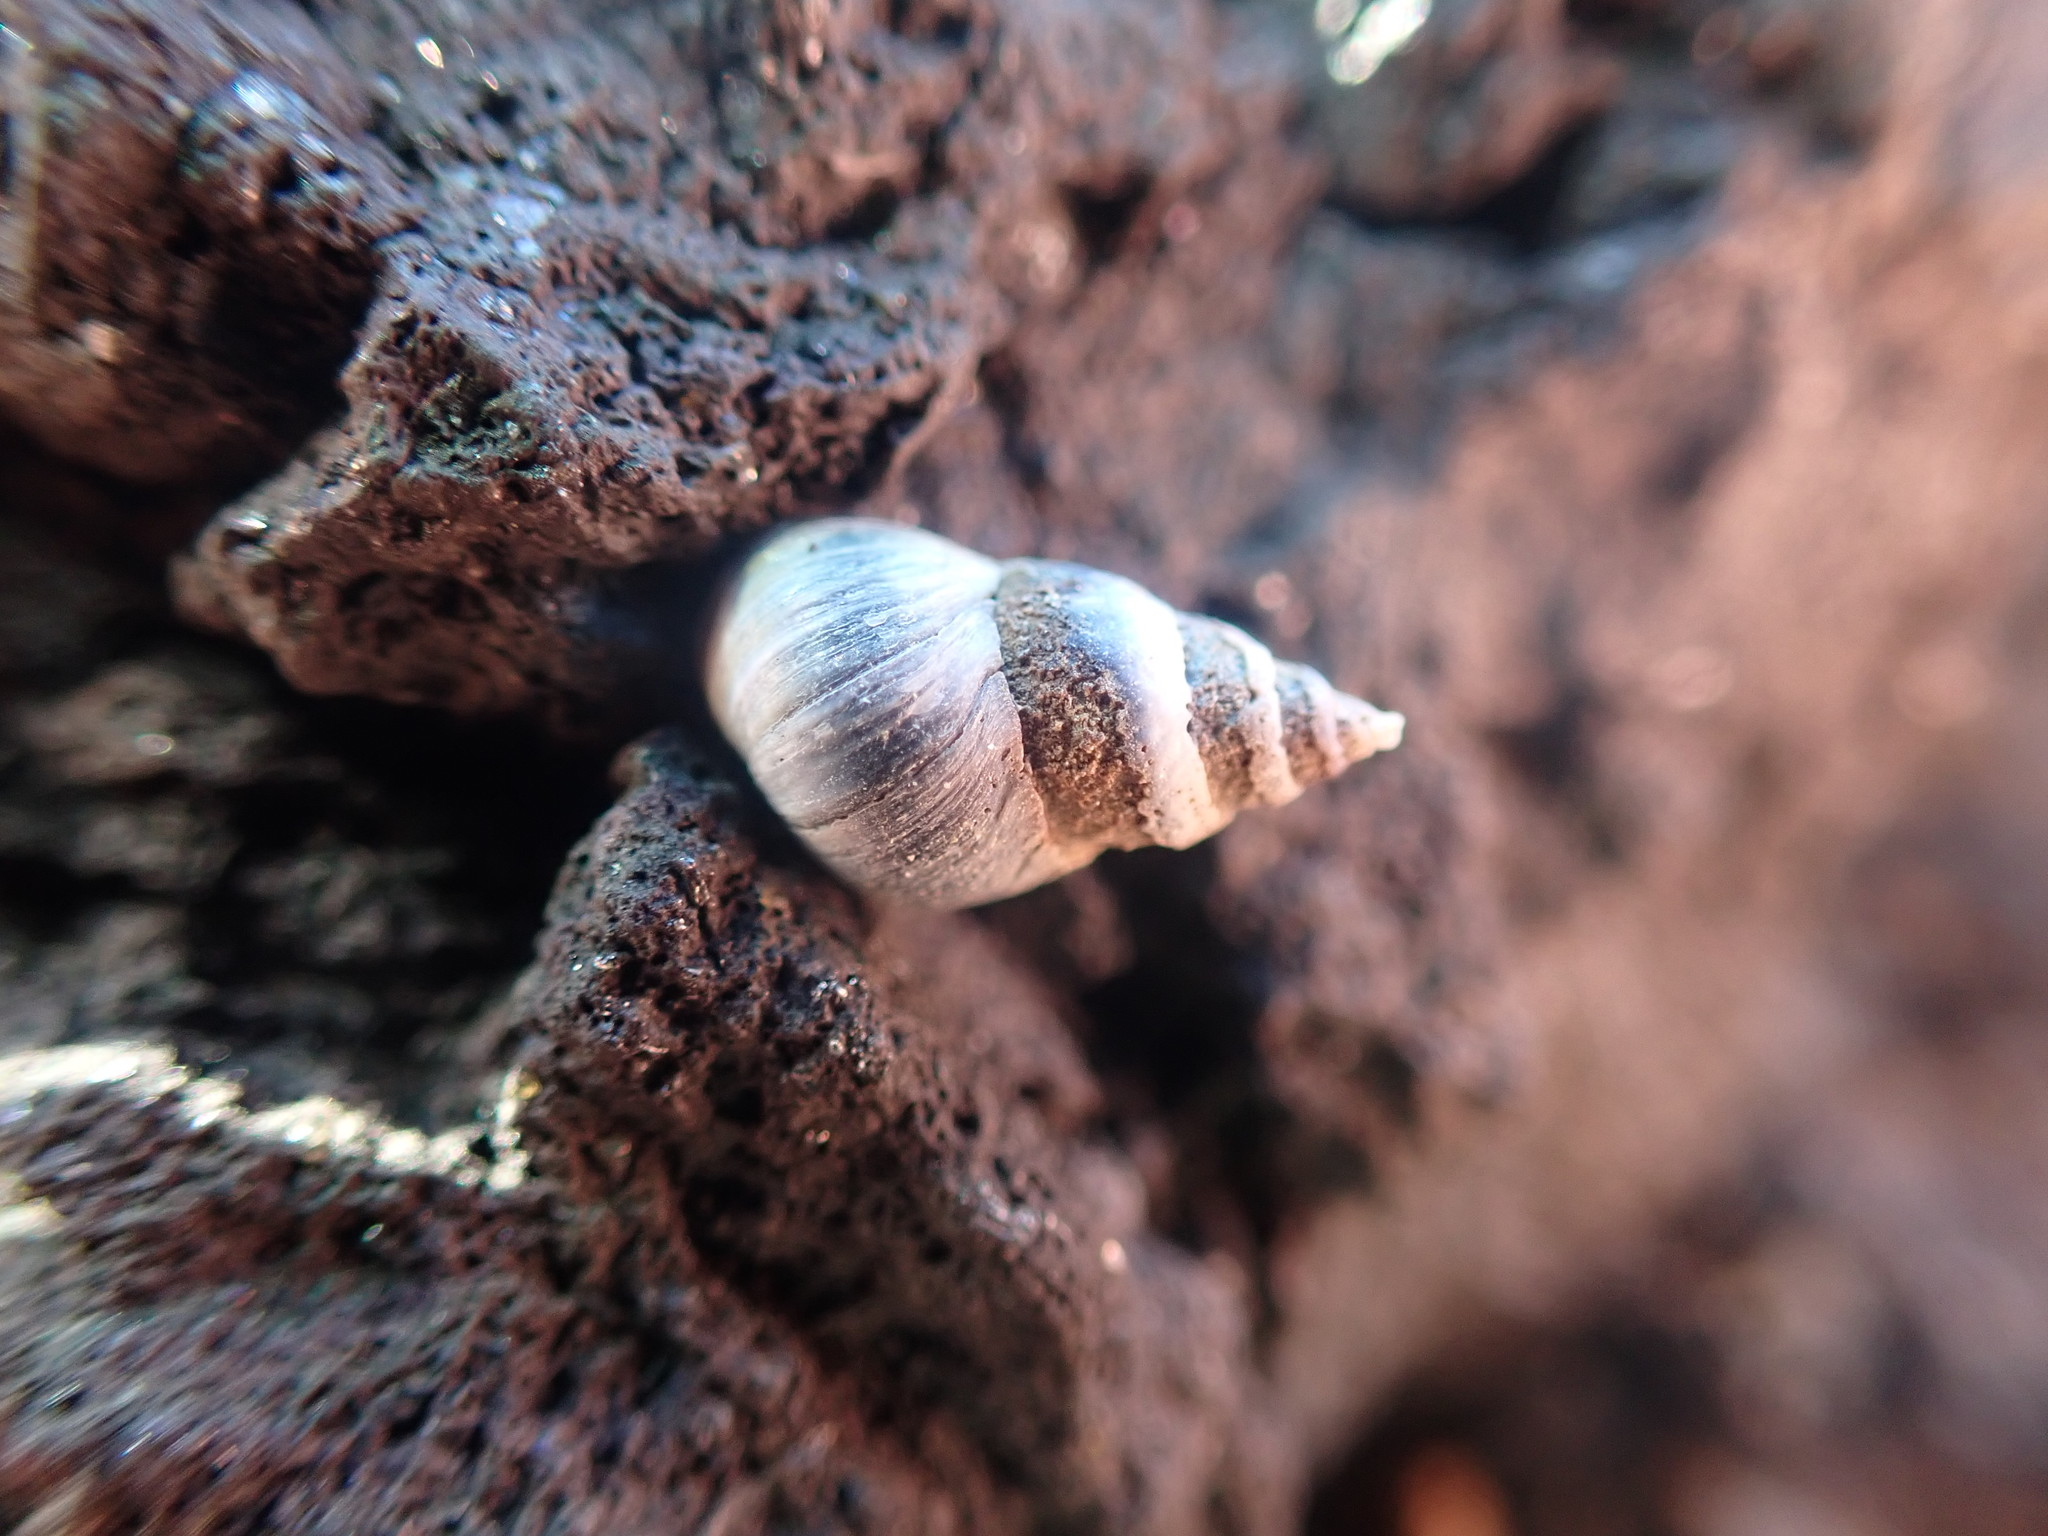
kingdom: Animalia
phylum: Mollusca
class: Gastropoda
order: Littorinimorpha
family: Littorinidae
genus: Austrolittorina
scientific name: Austrolittorina antipodum
